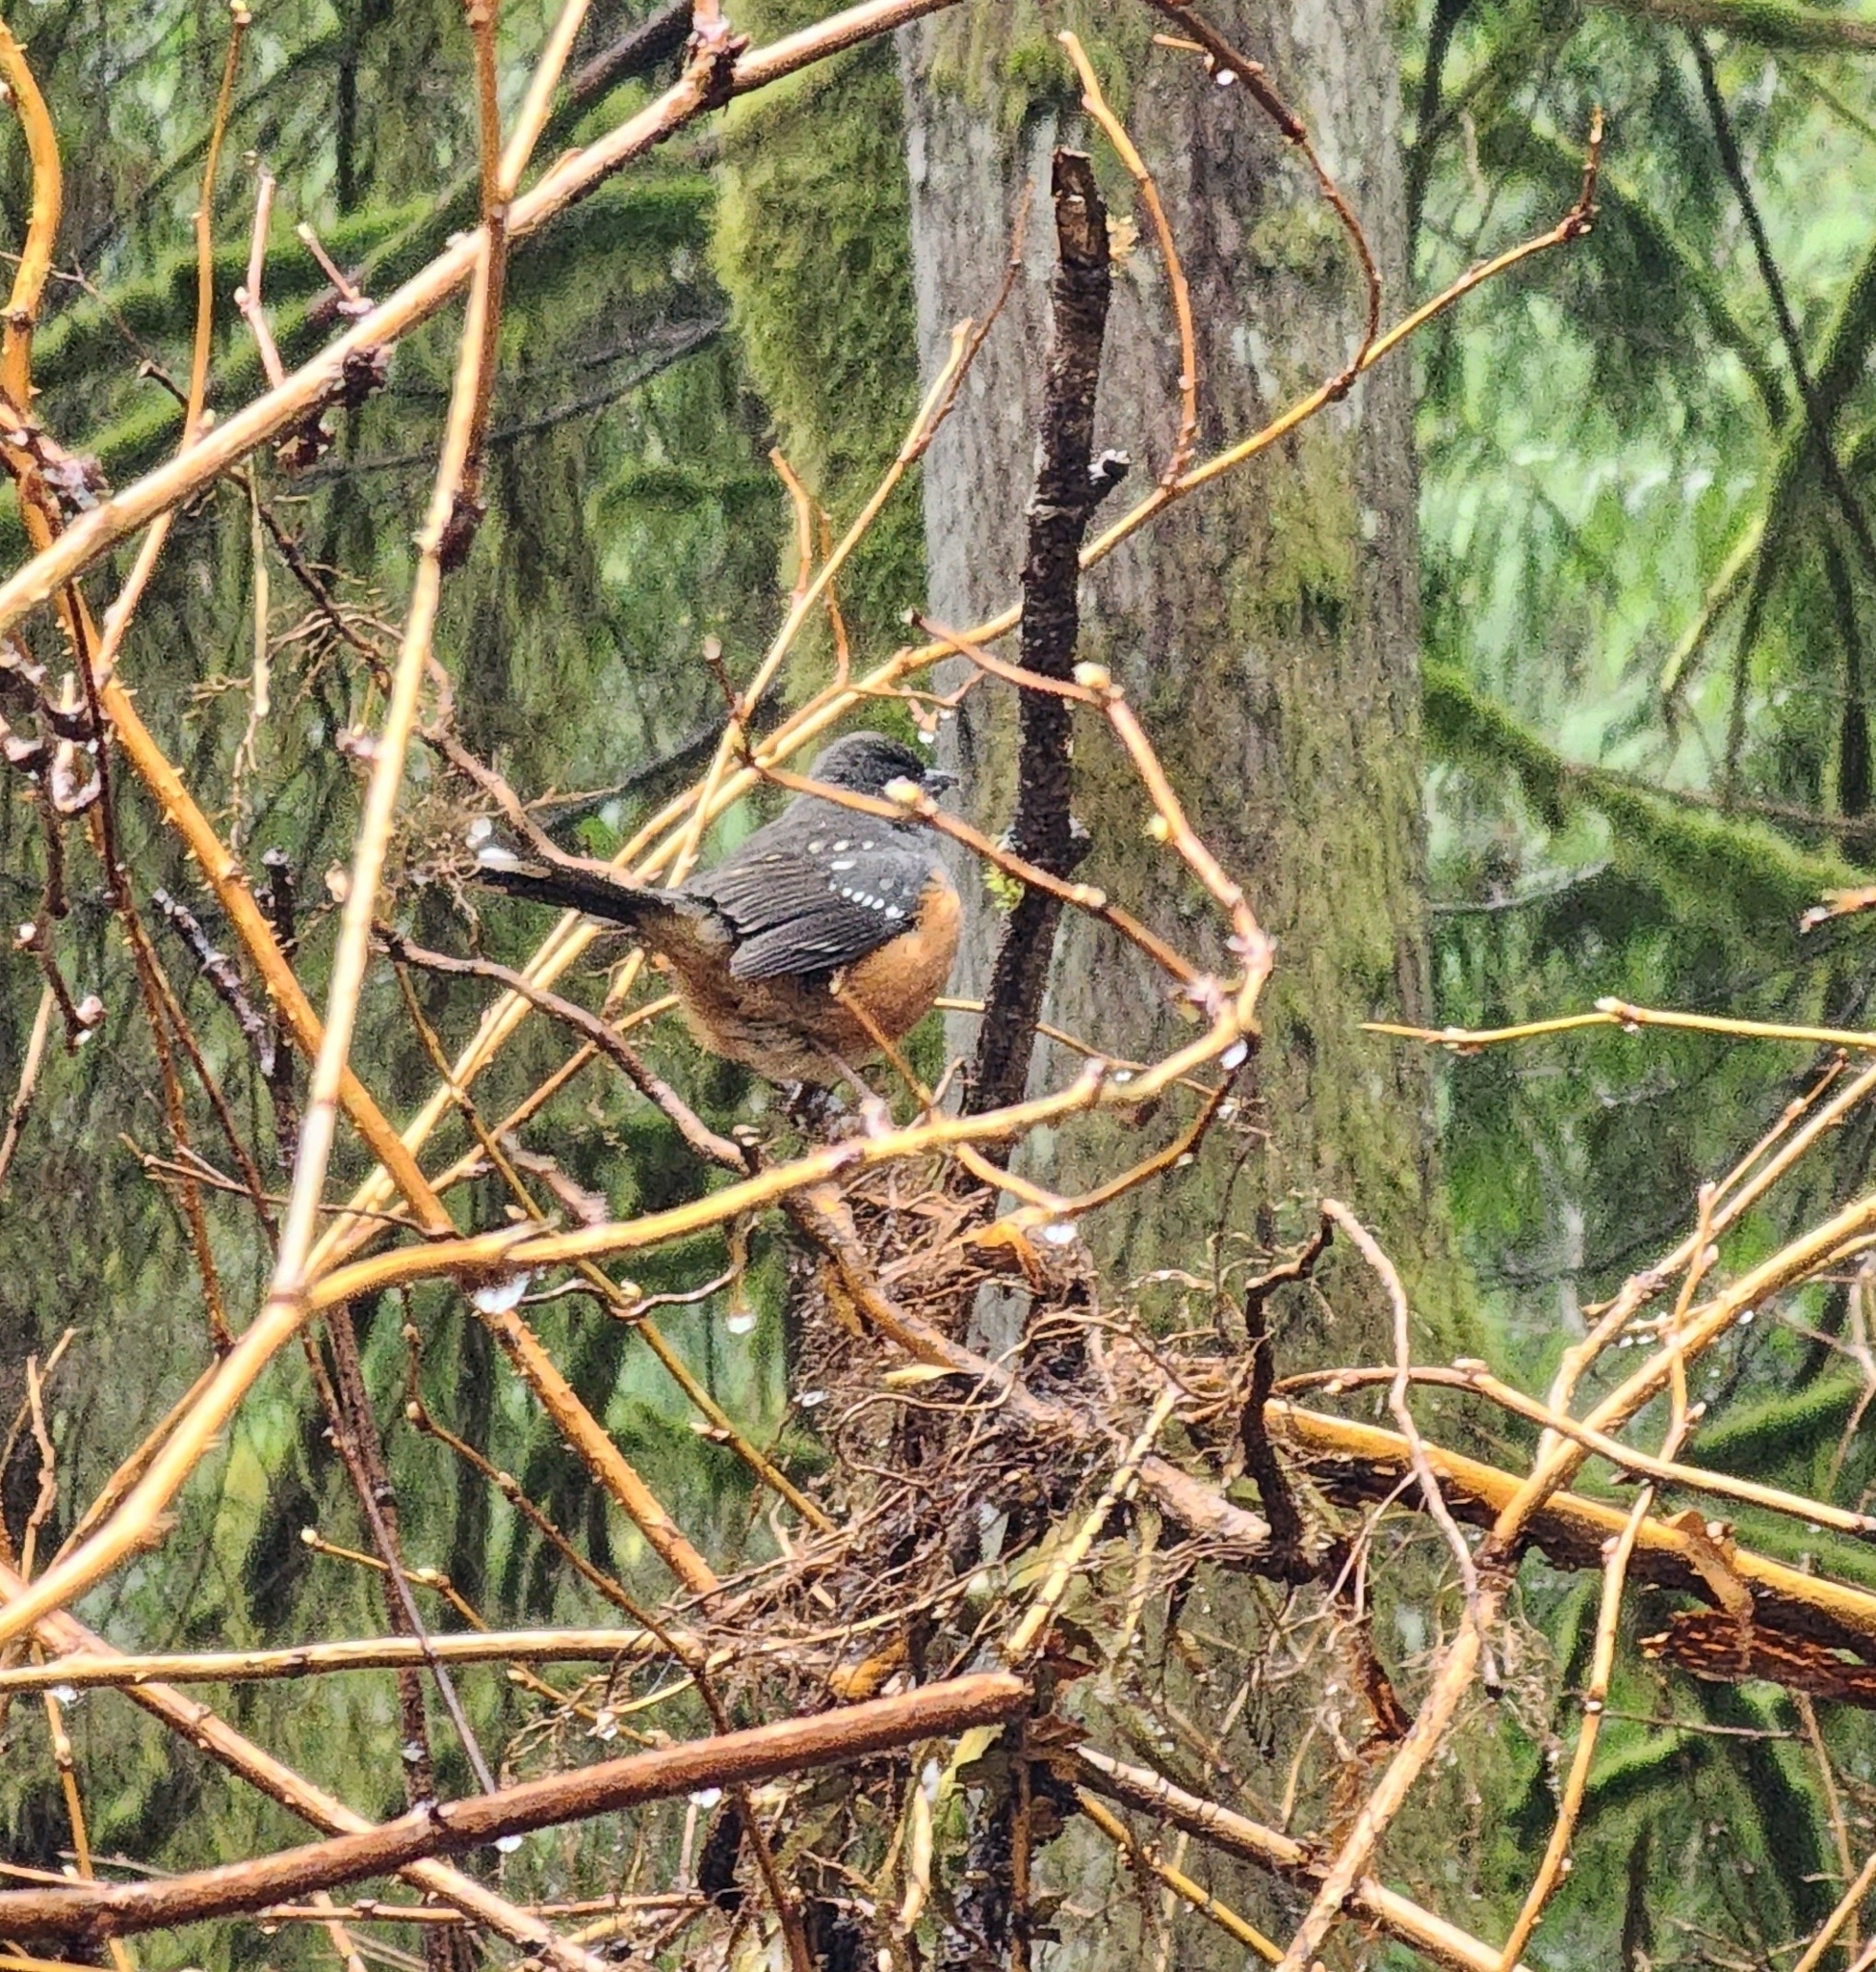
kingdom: Animalia
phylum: Chordata
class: Aves
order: Passeriformes
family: Passerellidae
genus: Pipilo
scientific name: Pipilo maculatus
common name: Spotted towhee
